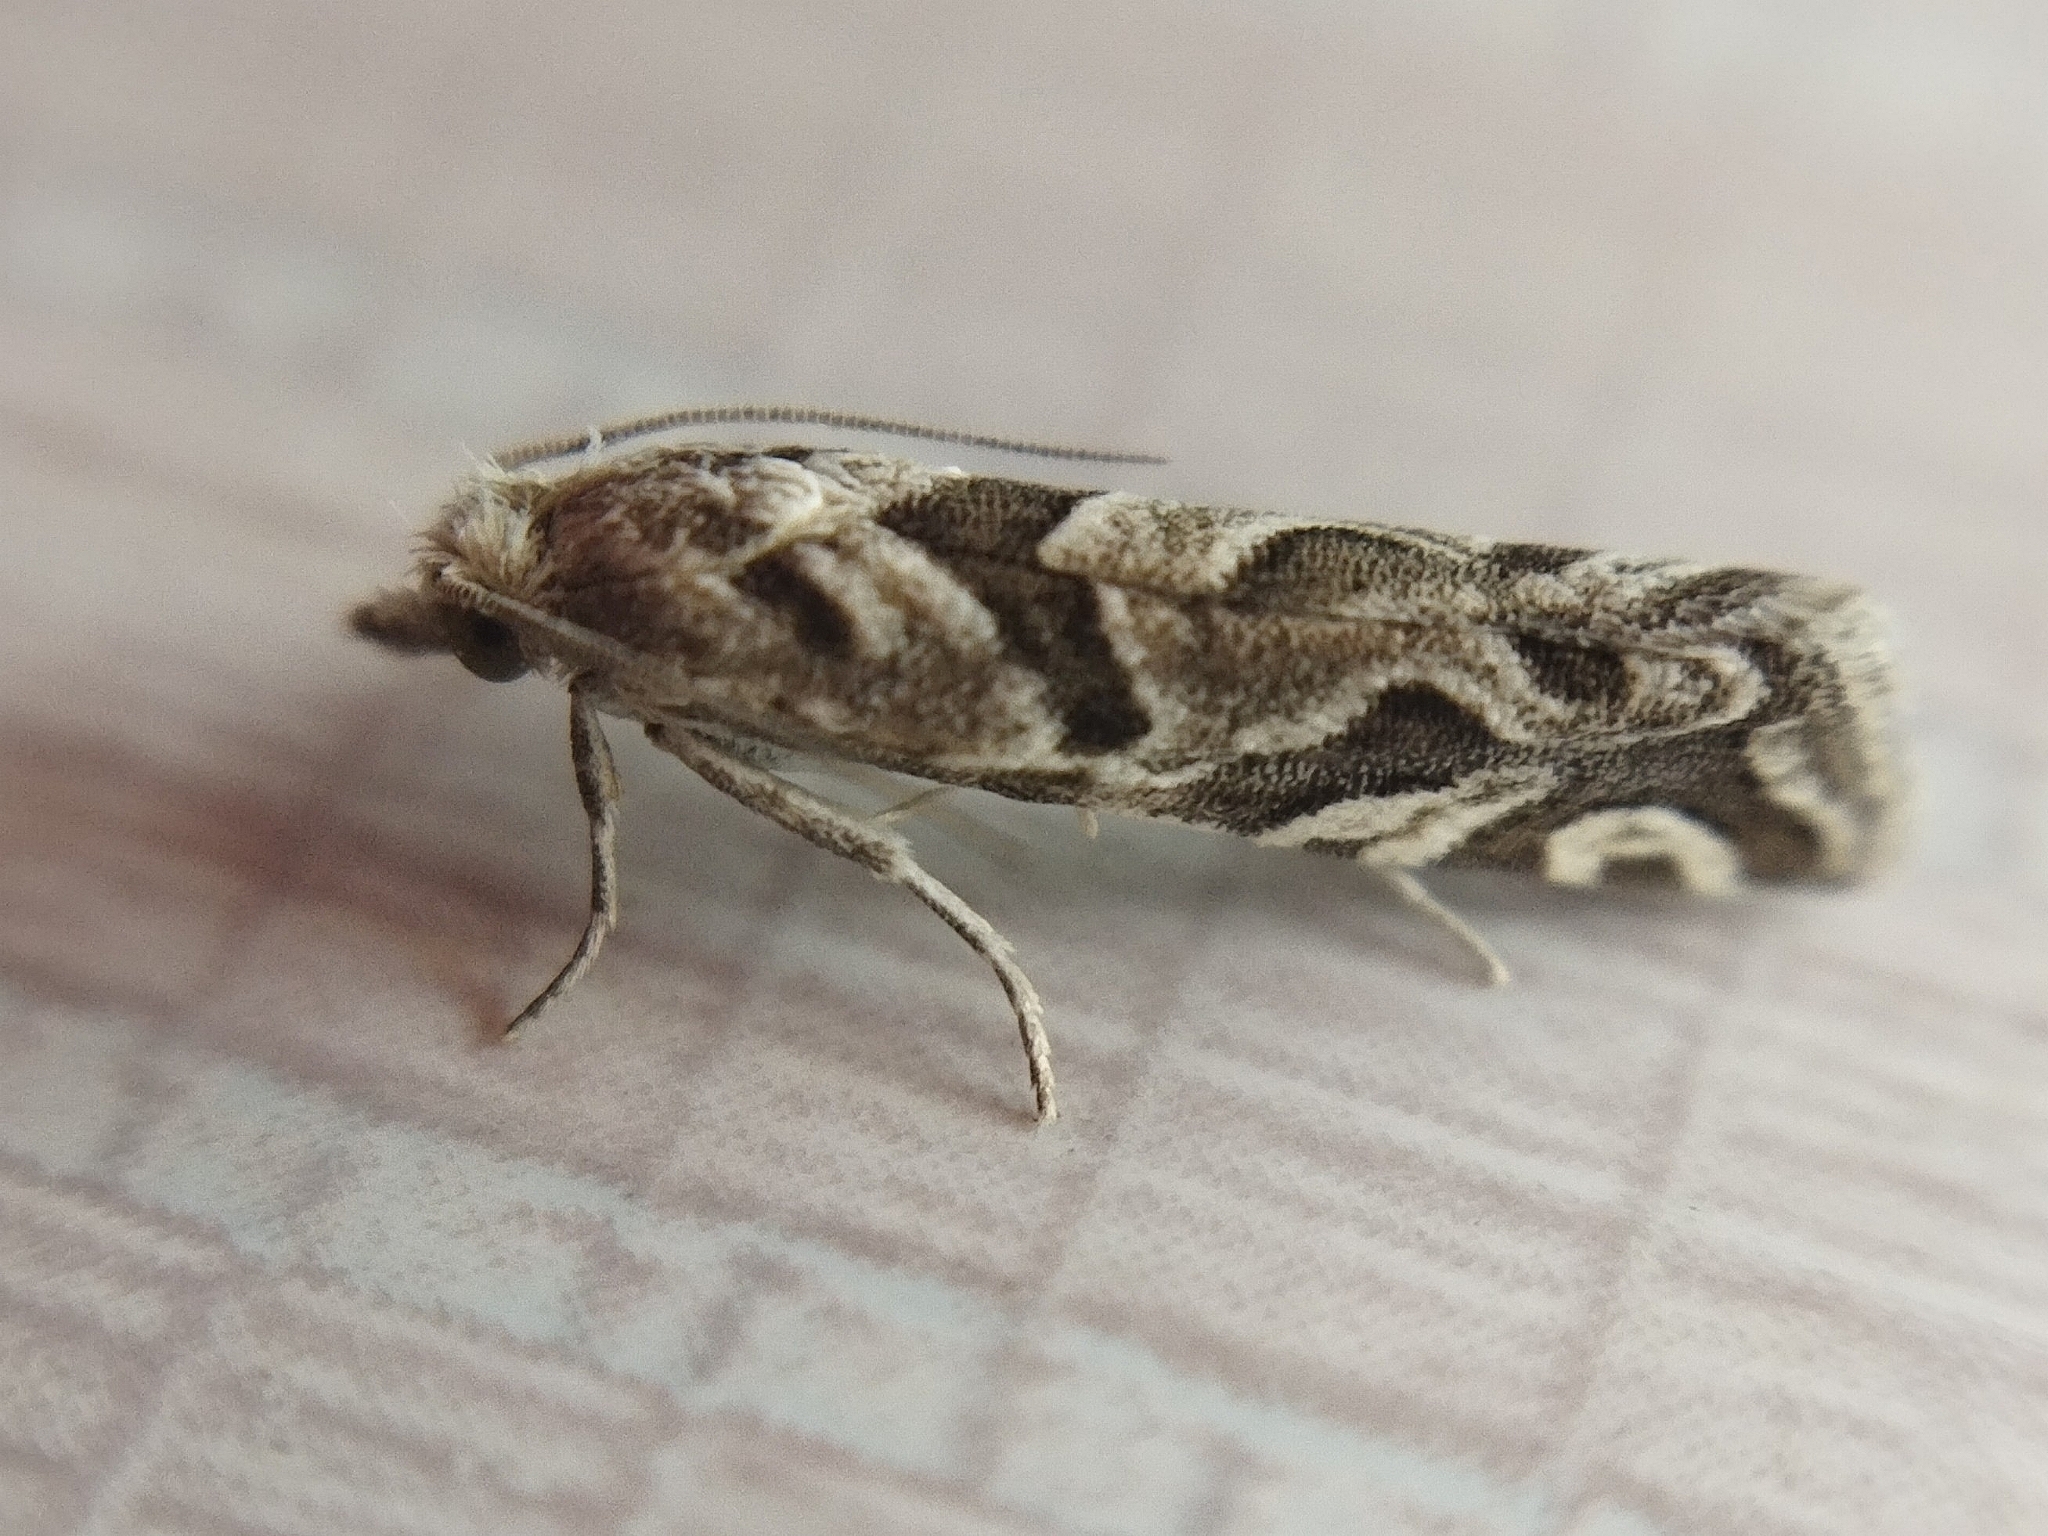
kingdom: Animalia
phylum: Arthropoda
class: Insecta
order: Lepidoptera
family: Tortricidae
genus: Pelochrista
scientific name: Pelochrista arabescana
